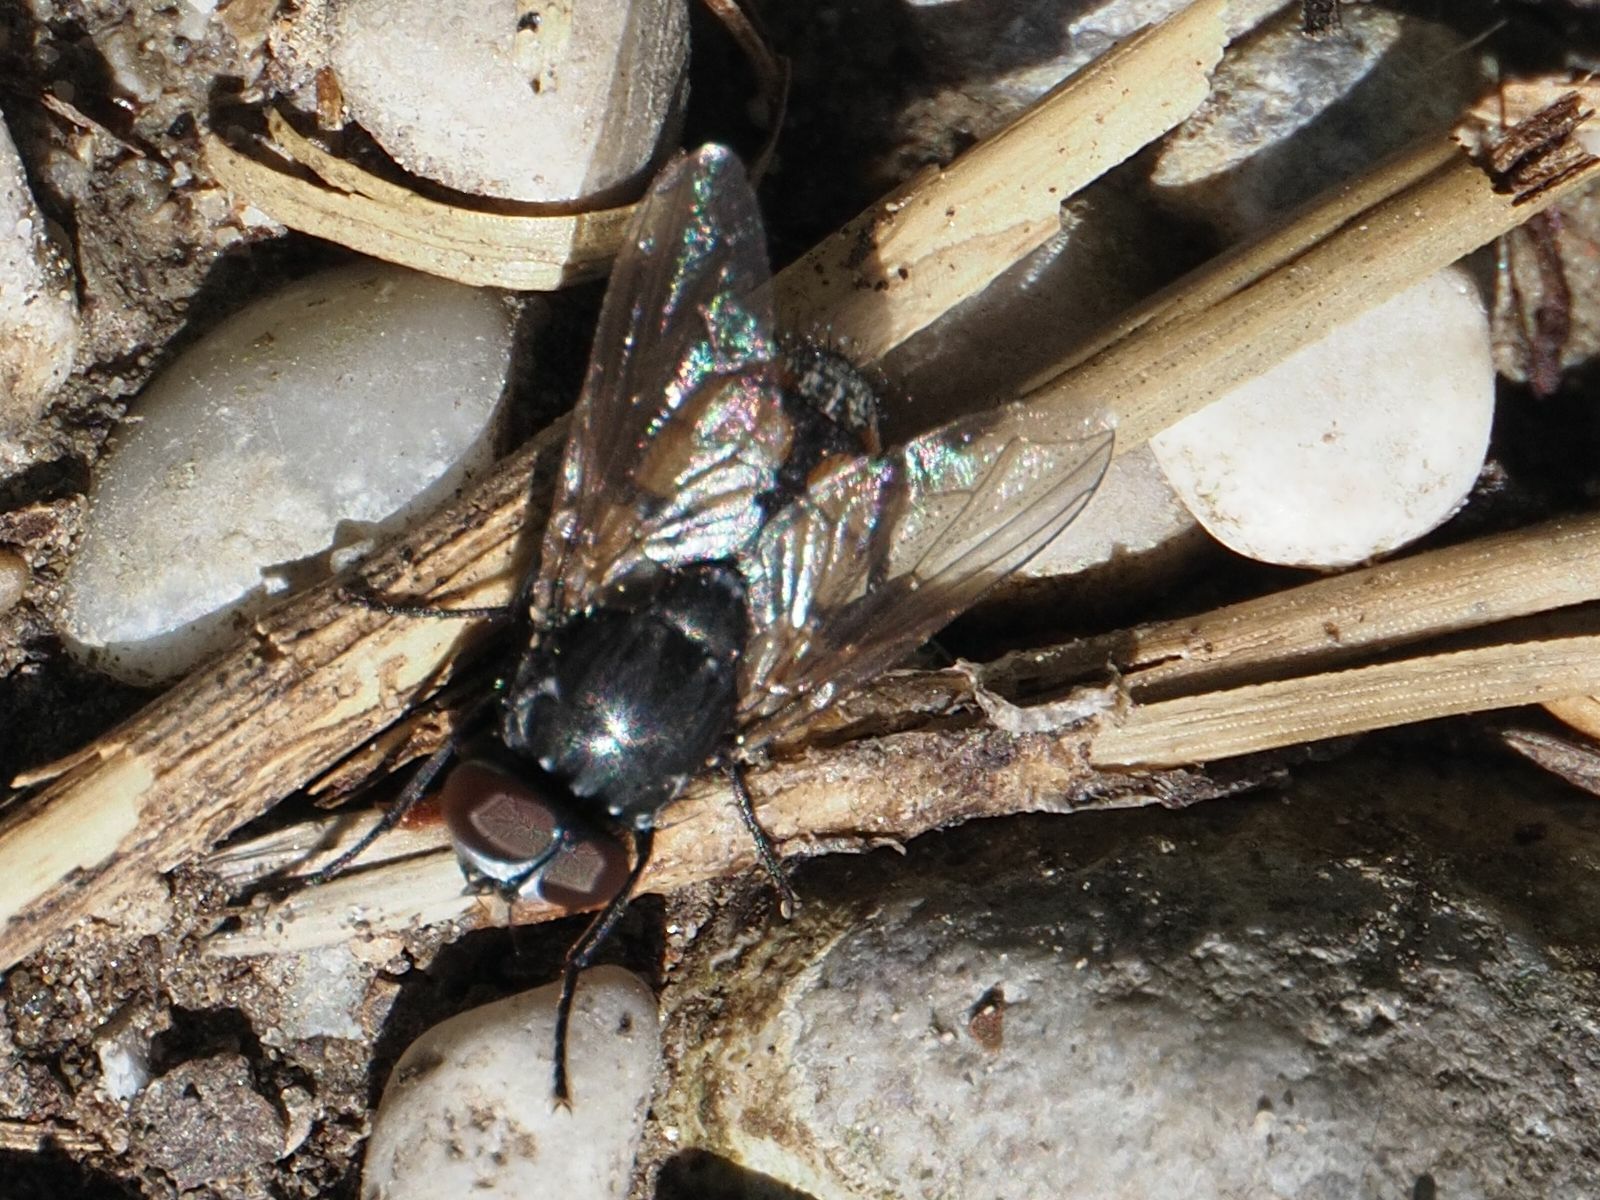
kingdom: Animalia
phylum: Arthropoda
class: Insecta
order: Diptera
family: Muscidae
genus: Musca
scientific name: Musca autumnalis
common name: Face fly
